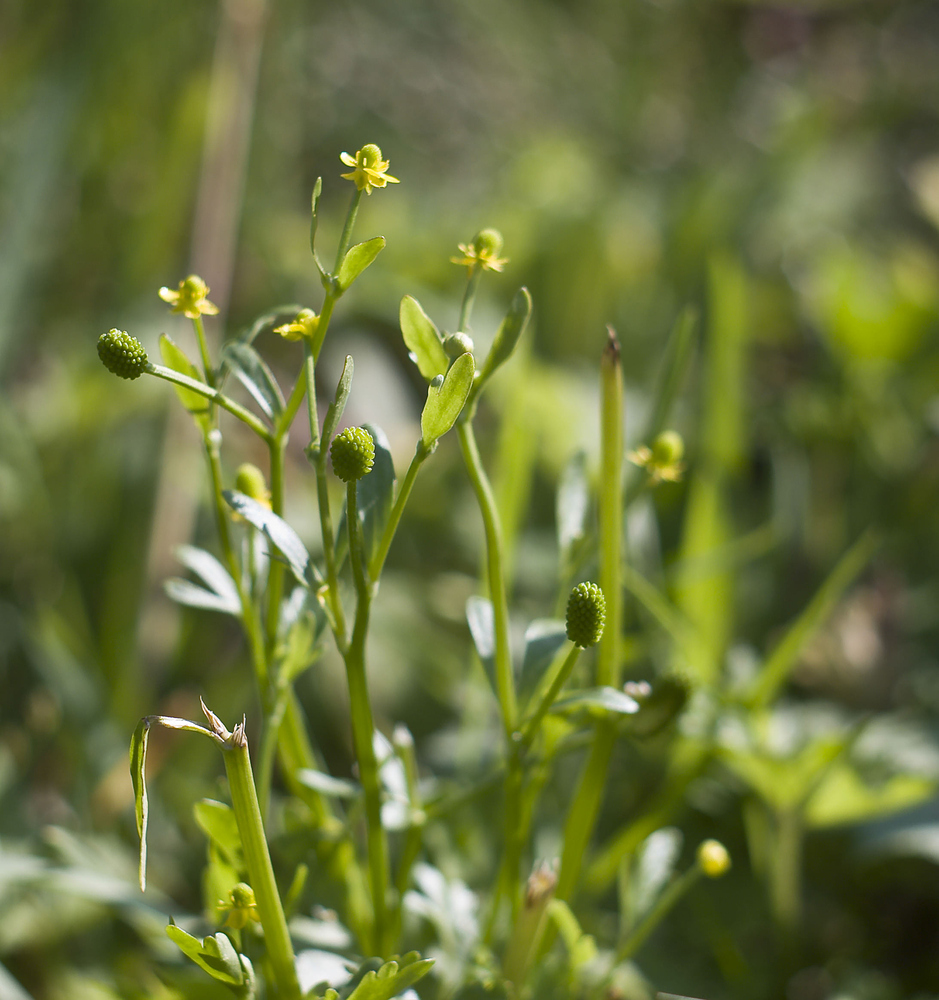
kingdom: Plantae
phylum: Tracheophyta
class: Magnoliopsida
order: Ranunculales
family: Ranunculaceae
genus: Ranunculus
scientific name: Ranunculus sceleratus
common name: Celery-leaved buttercup
